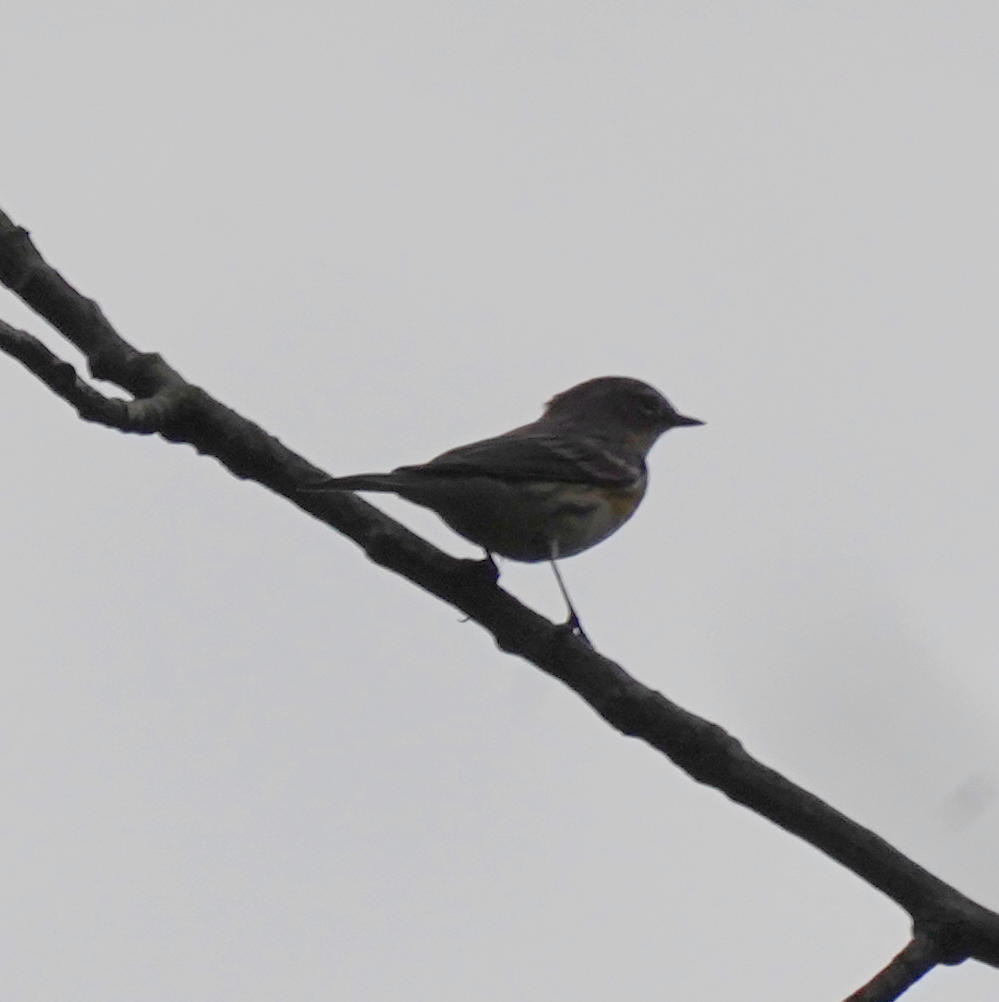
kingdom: Animalia
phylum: Chordata
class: Aves
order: Passeriformes
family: Parulidae
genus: Setophaga
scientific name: Setophaga coronata
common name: Myrtle warbler
